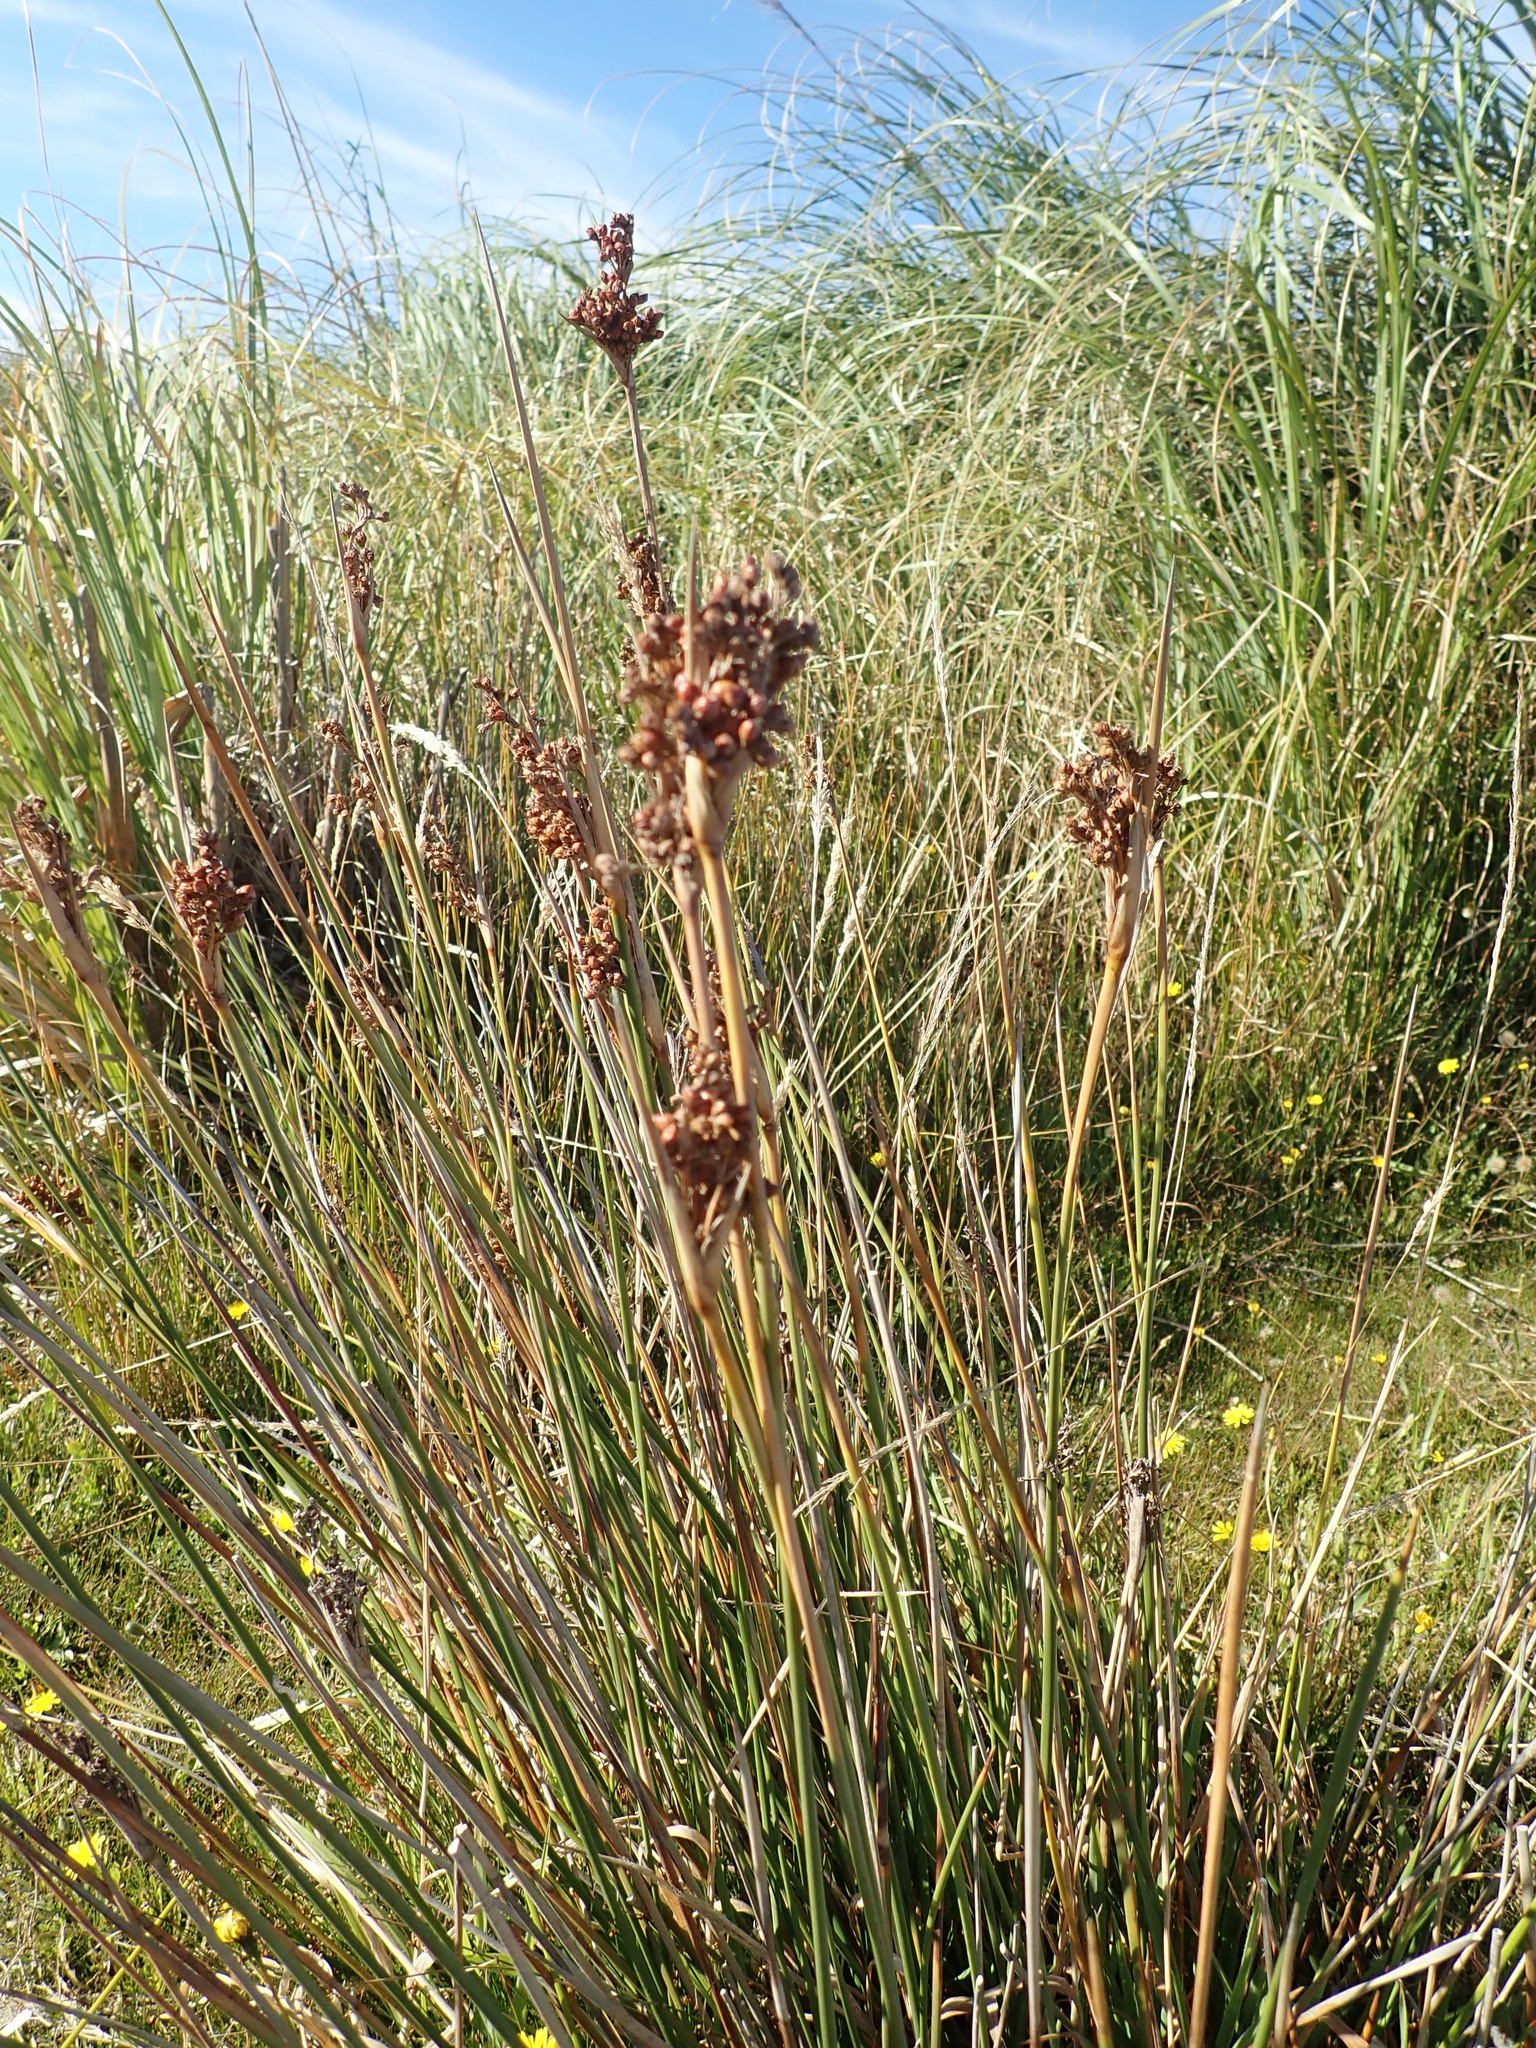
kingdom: Plantae
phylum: Tracheophyta
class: Liliopsida
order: Poales
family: Juncaceae
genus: Juncus
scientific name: Juncus acutus
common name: Sharp rush
